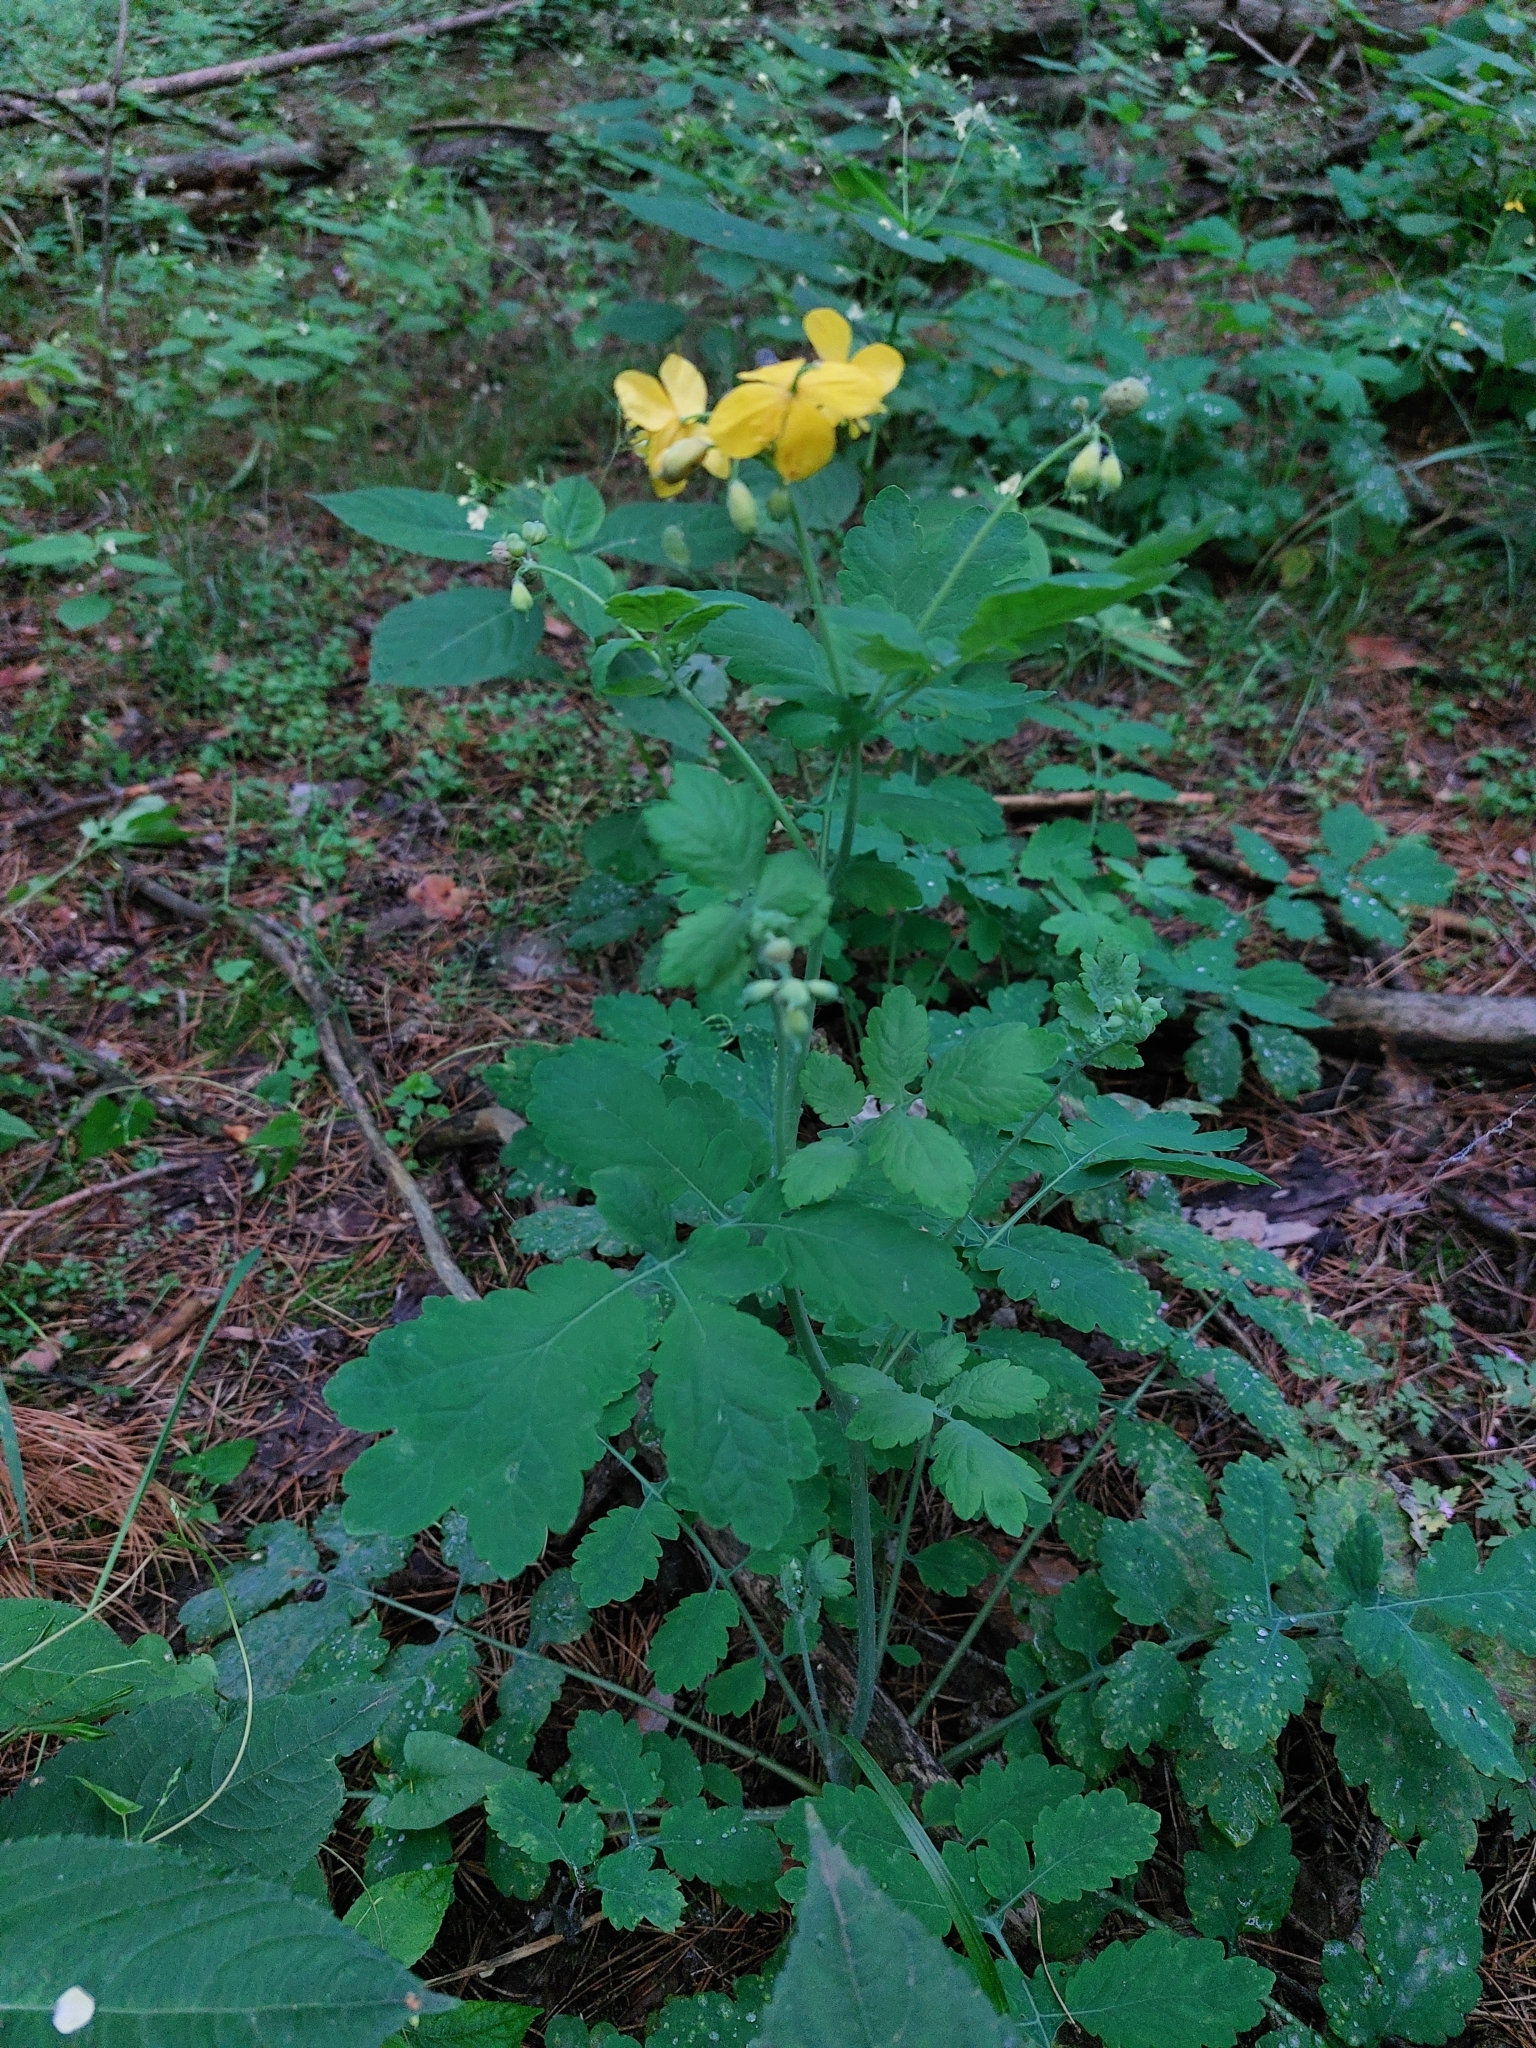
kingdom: Plantae
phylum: Tracheophyta
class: Magnoliopsida
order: Ranunculales
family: Papaveraceae
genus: Chelidonium
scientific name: Chelidonium majus
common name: Greater celandine
